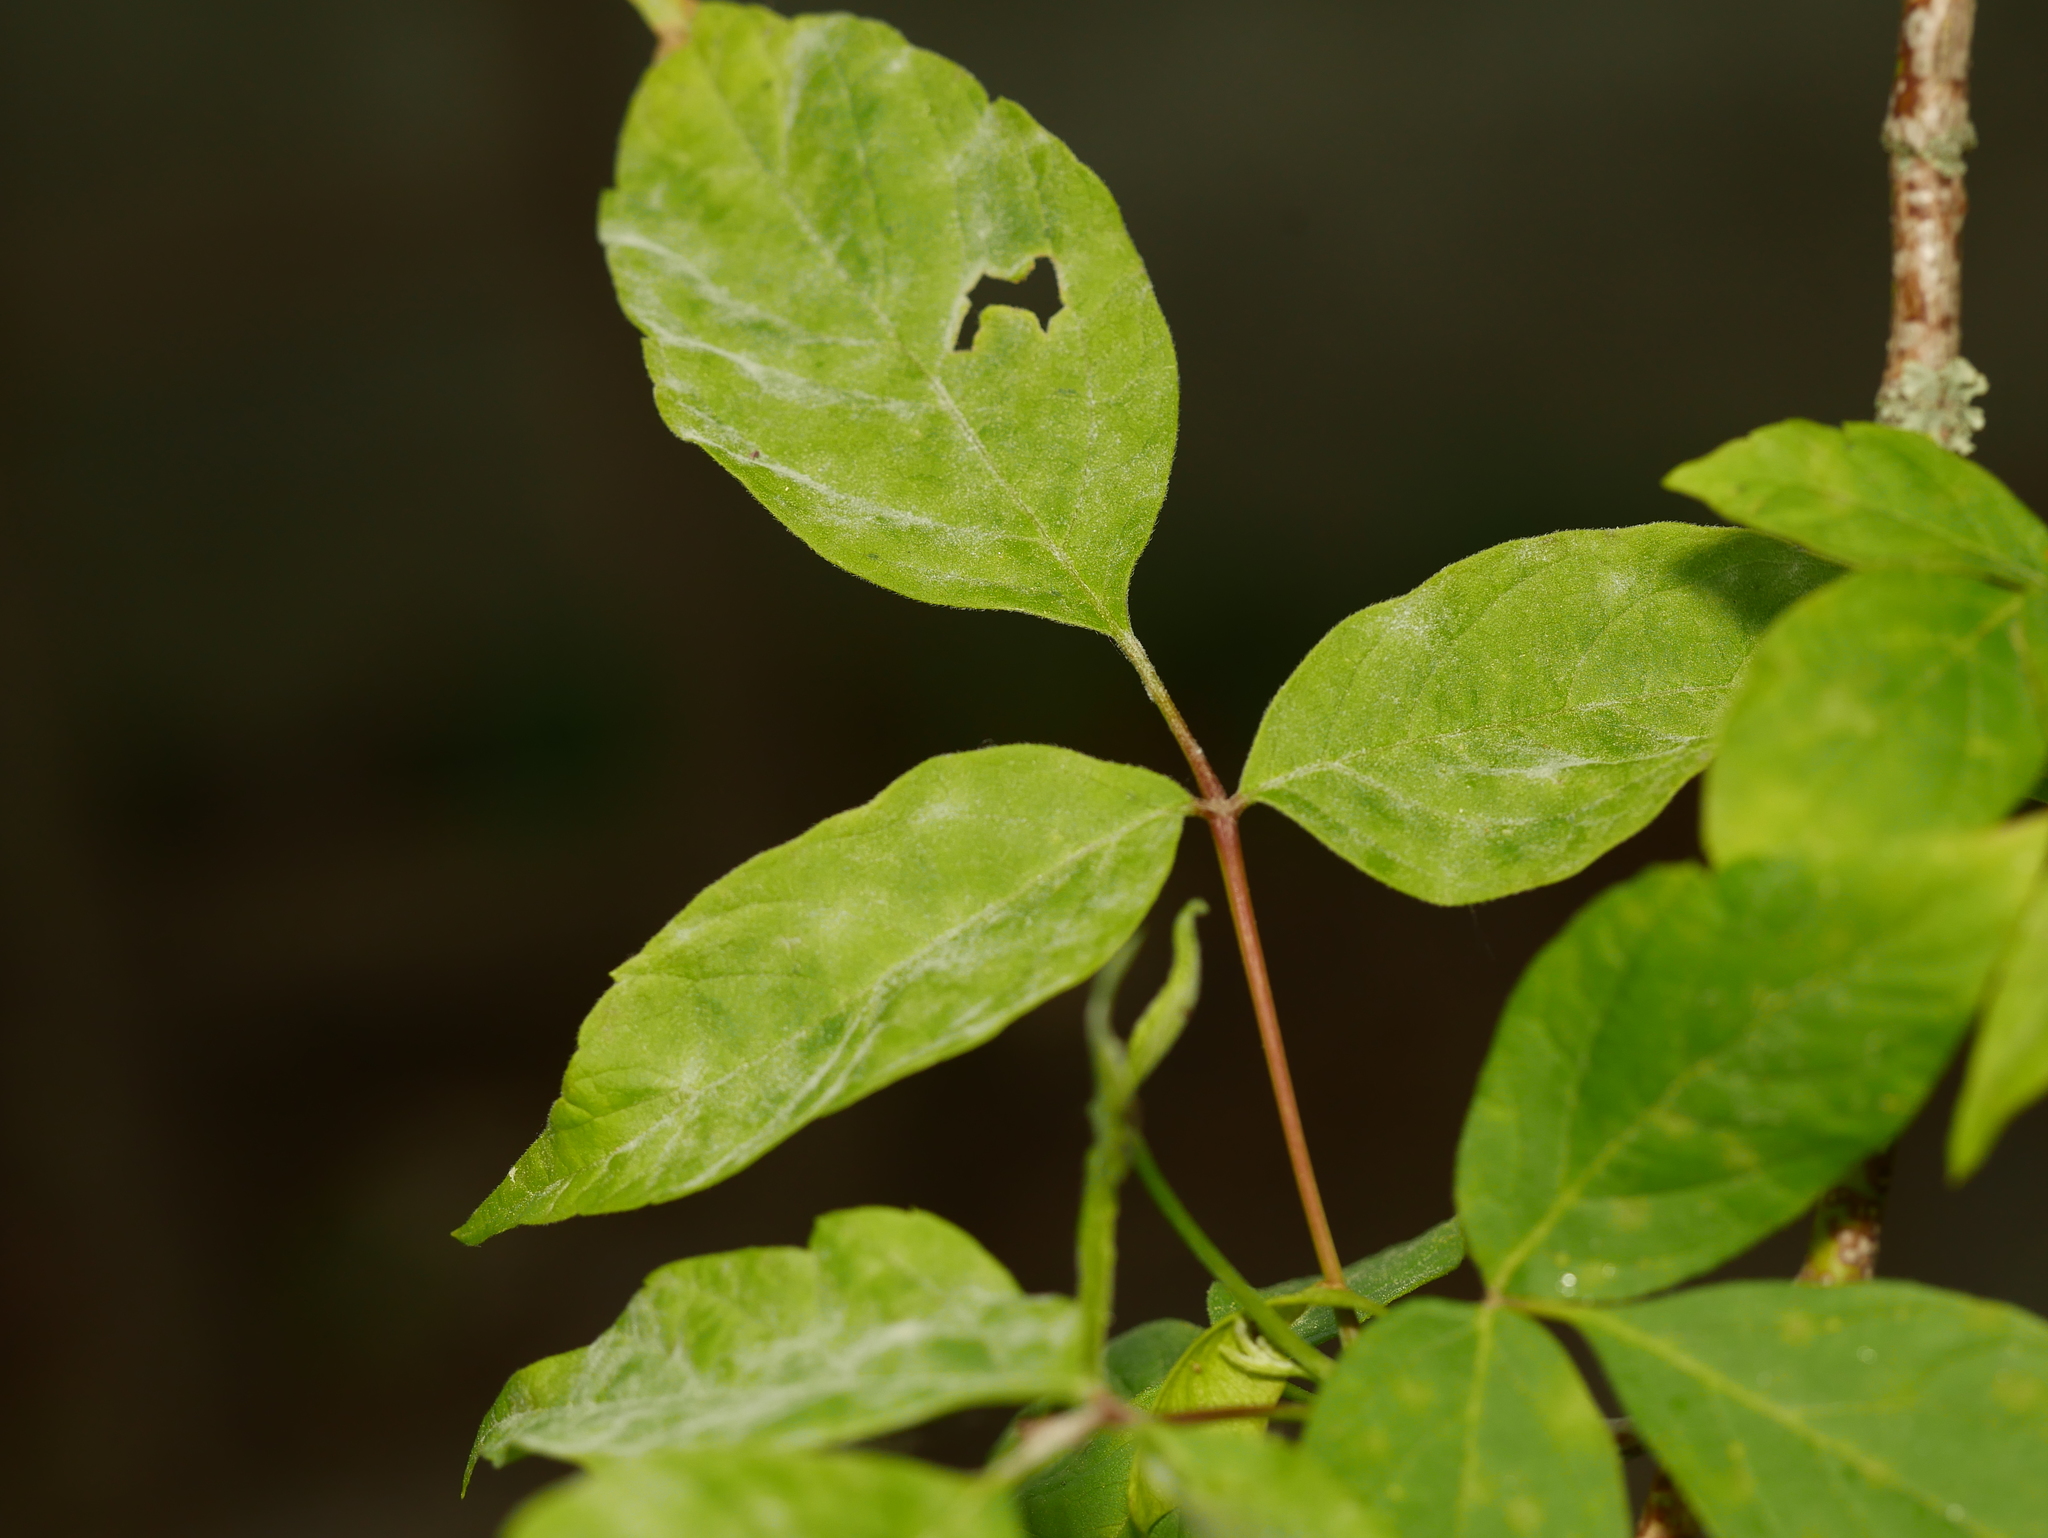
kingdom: Plantae
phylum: Tracheophyta
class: Magnoliopsida
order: Sapindales
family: Sapindaceae
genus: Acer
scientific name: Acer negundo
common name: Ashleaf maple
